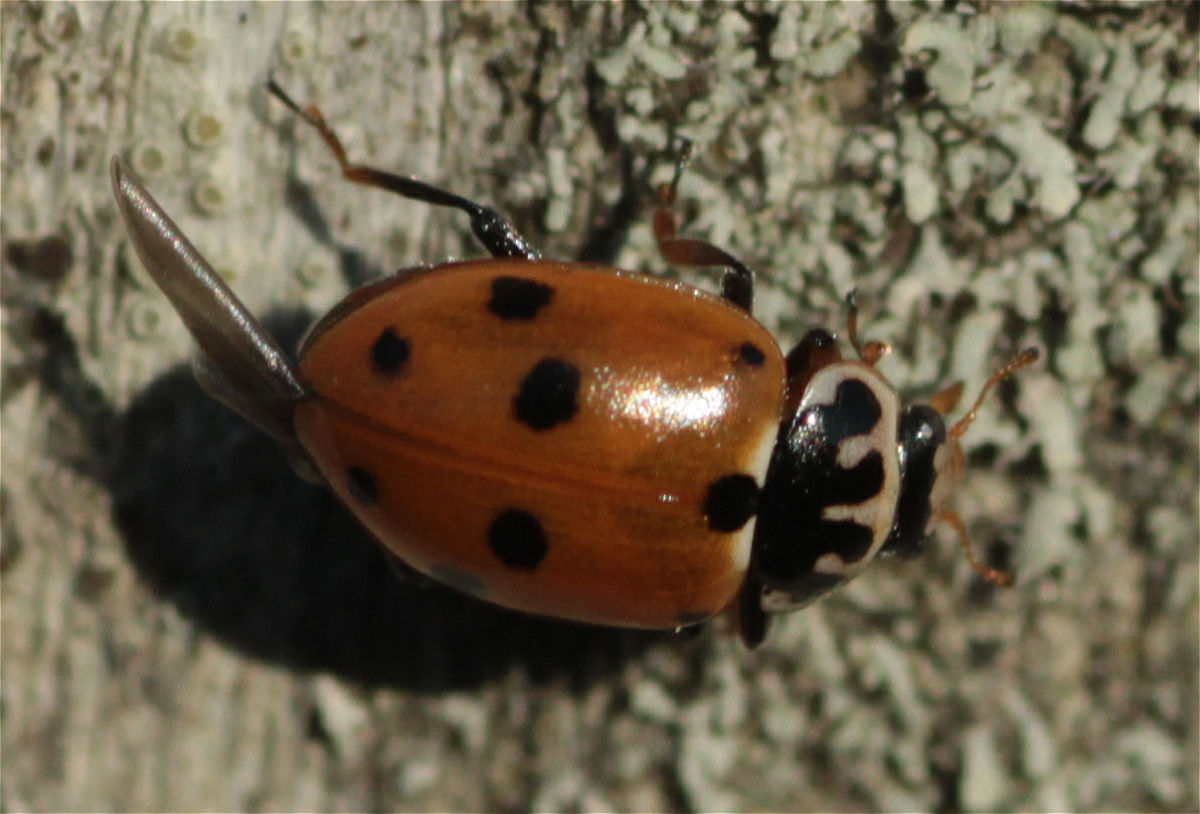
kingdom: Animalia
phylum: Arthropoda
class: Insecta
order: Coleoptera
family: Coccinellidae
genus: Hippodamia
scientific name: Hippodamia variegata
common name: Ladybird beetle
